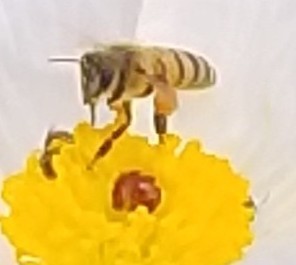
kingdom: Animalia
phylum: Arthropoda
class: Insecta
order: Hymenoptera
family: Apidae
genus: Apis
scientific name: Apis mellifera
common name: Honey bee
